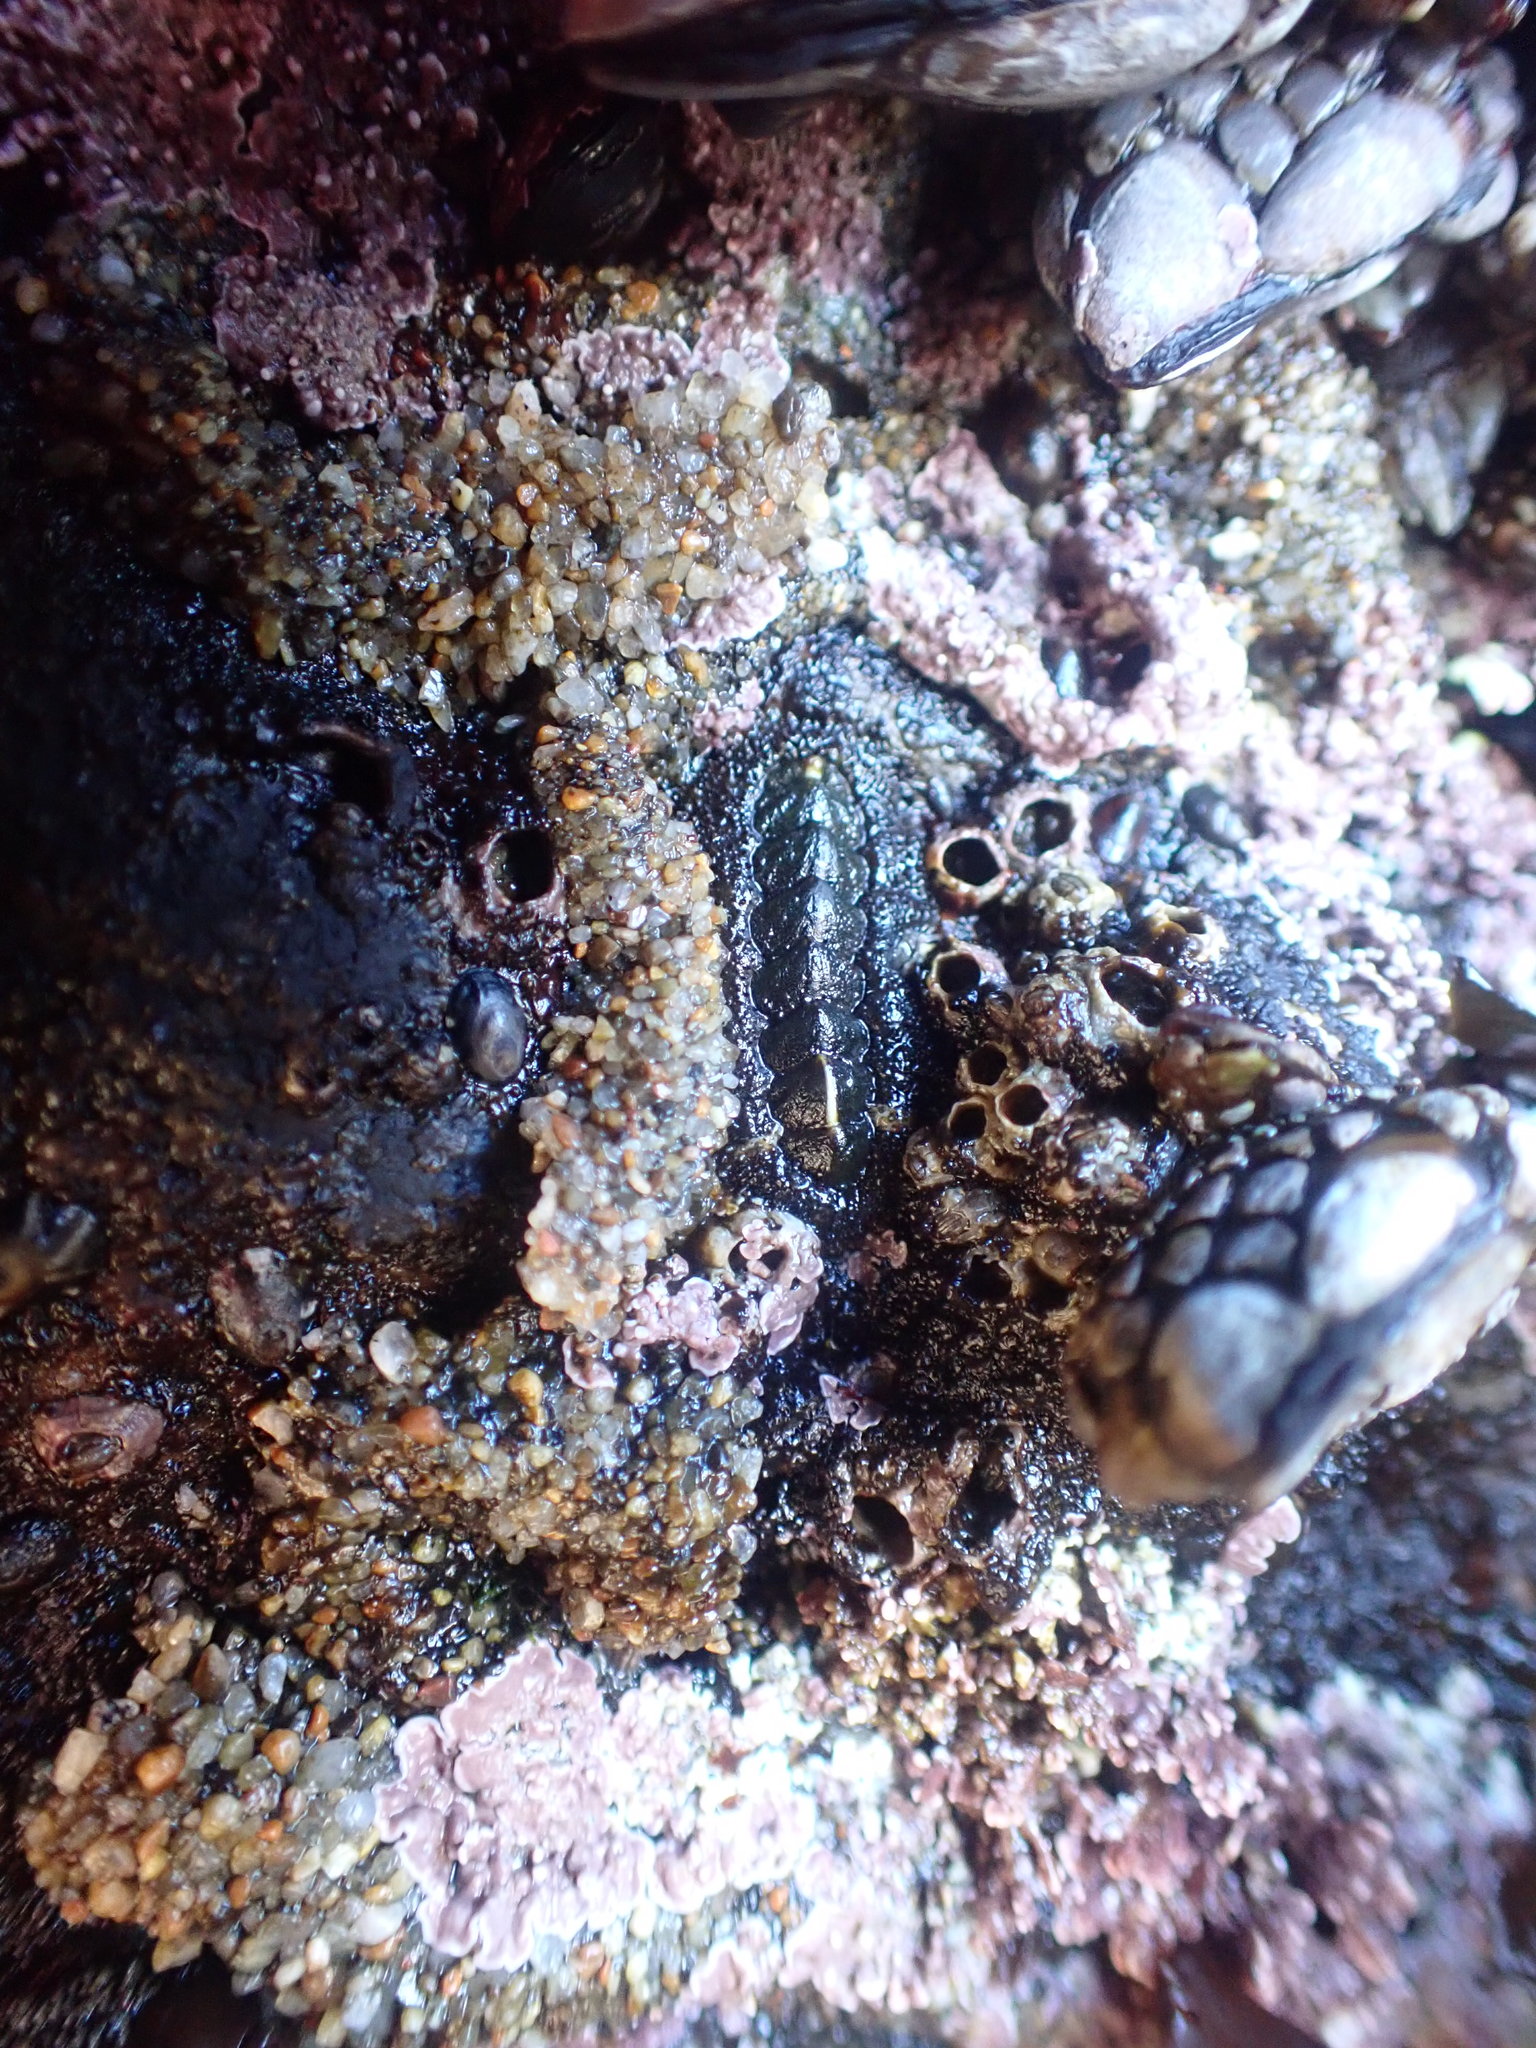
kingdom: Animalia
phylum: Mollusca
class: Polyplacophora
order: Chitonida
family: Tonicellidae
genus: Nuttallina
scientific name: Nuttallina californica
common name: California nuttall chiton
